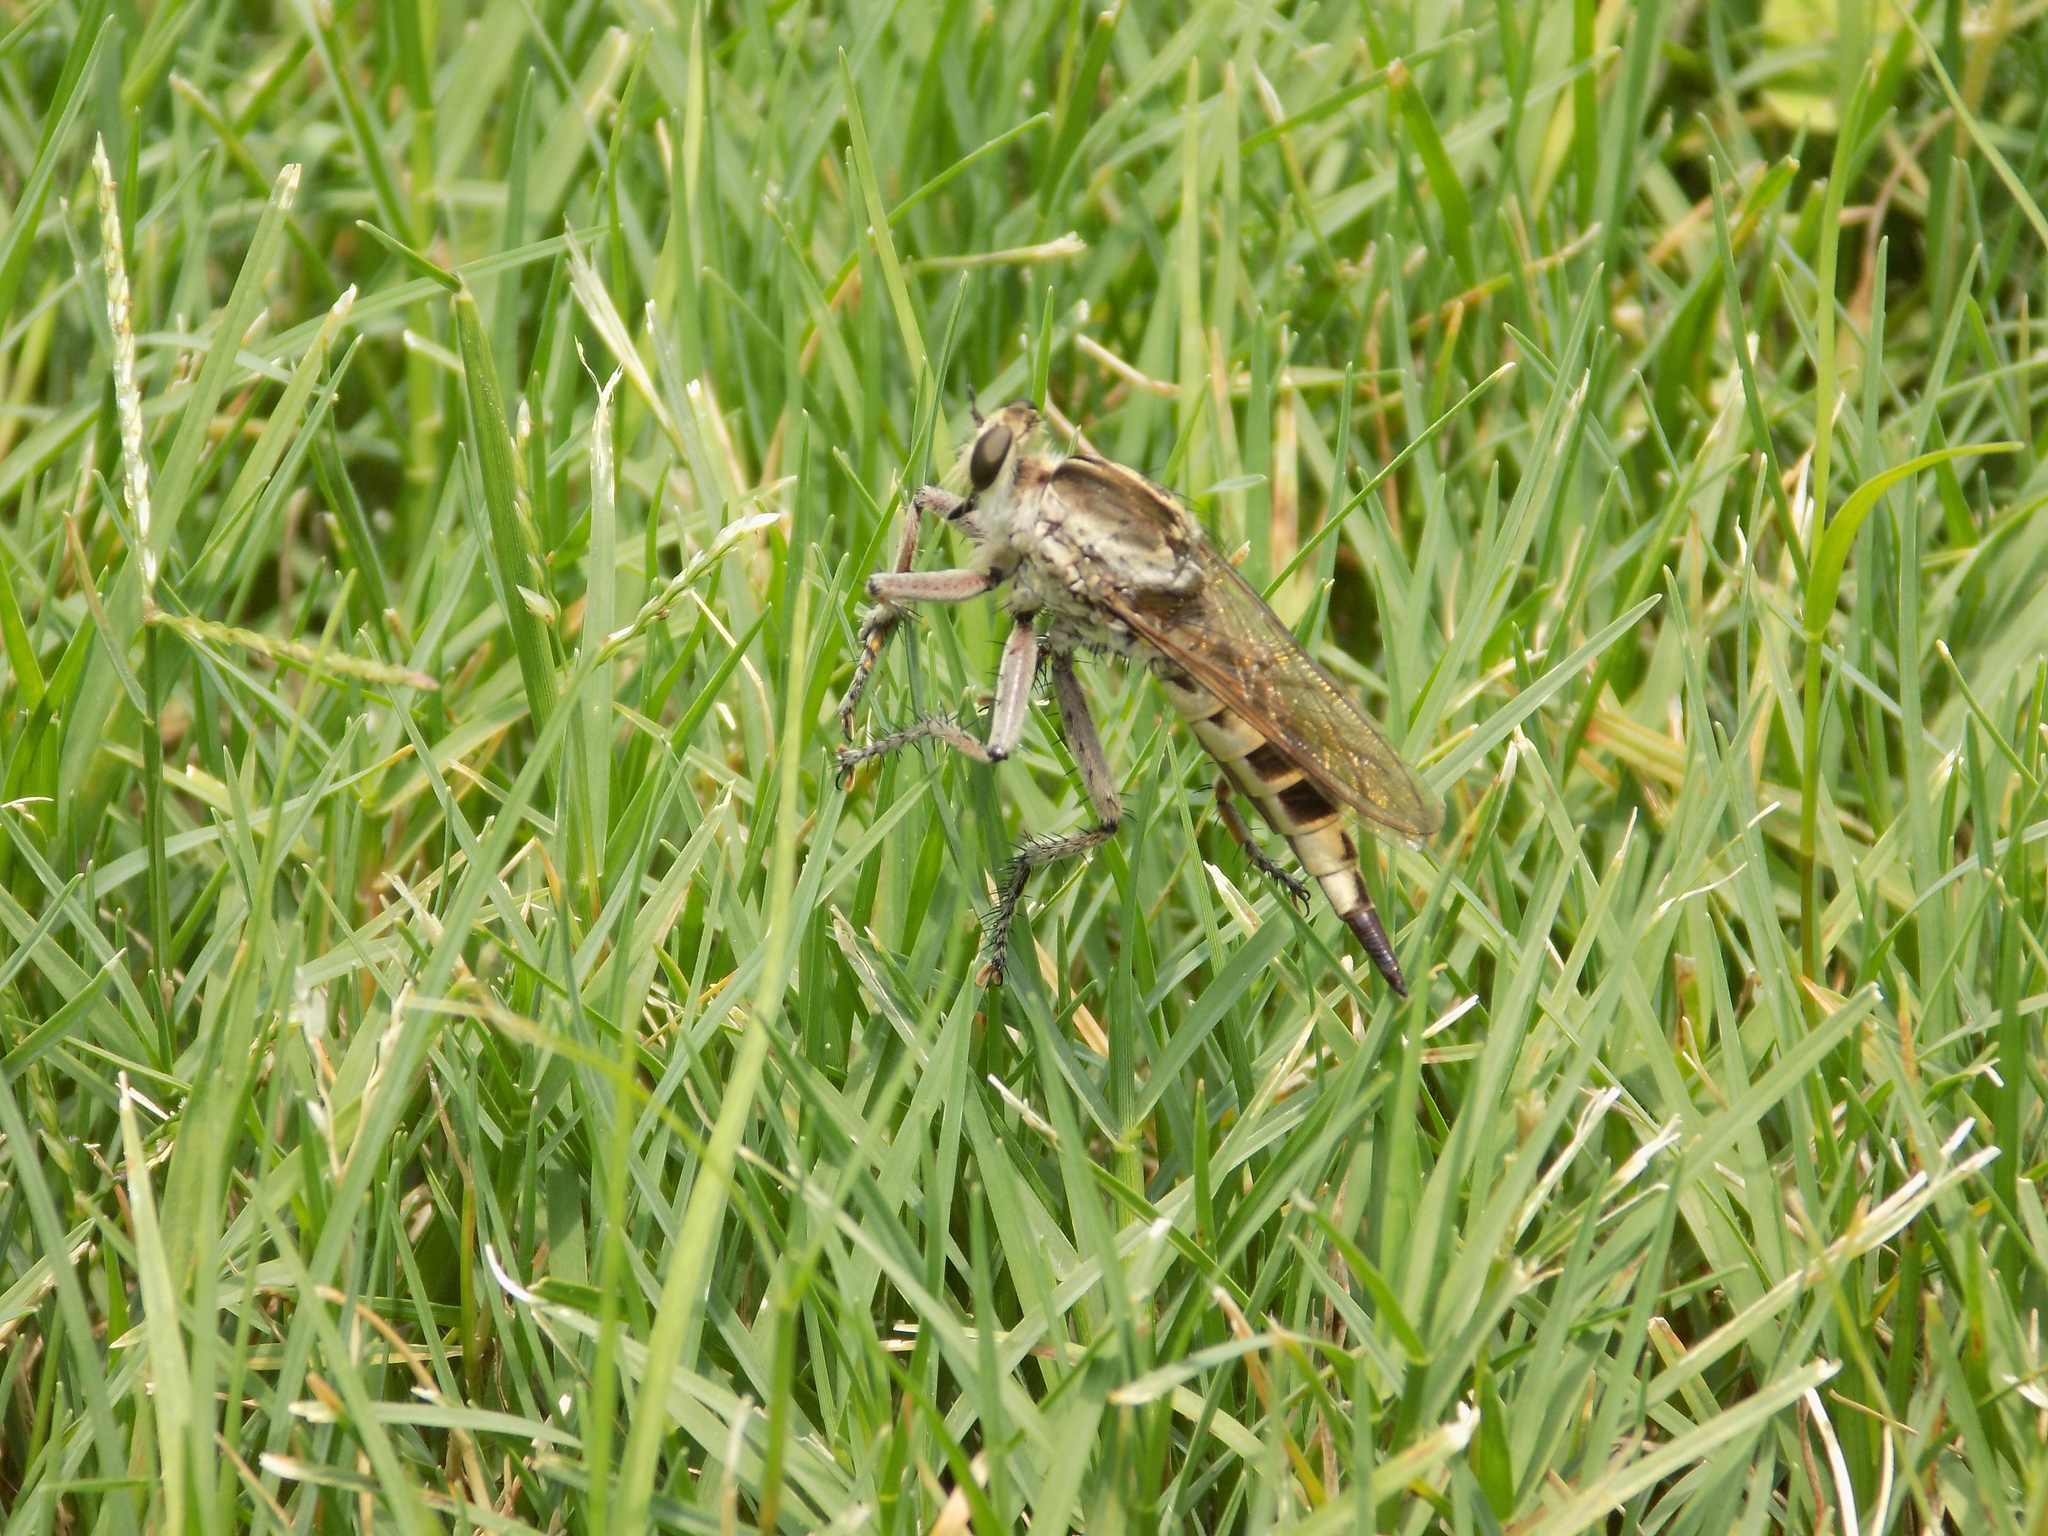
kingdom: Animalia
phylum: Arthropoda
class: Insecta
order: Diptera
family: Asilidae
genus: Triorla
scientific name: Triorla interrupta
